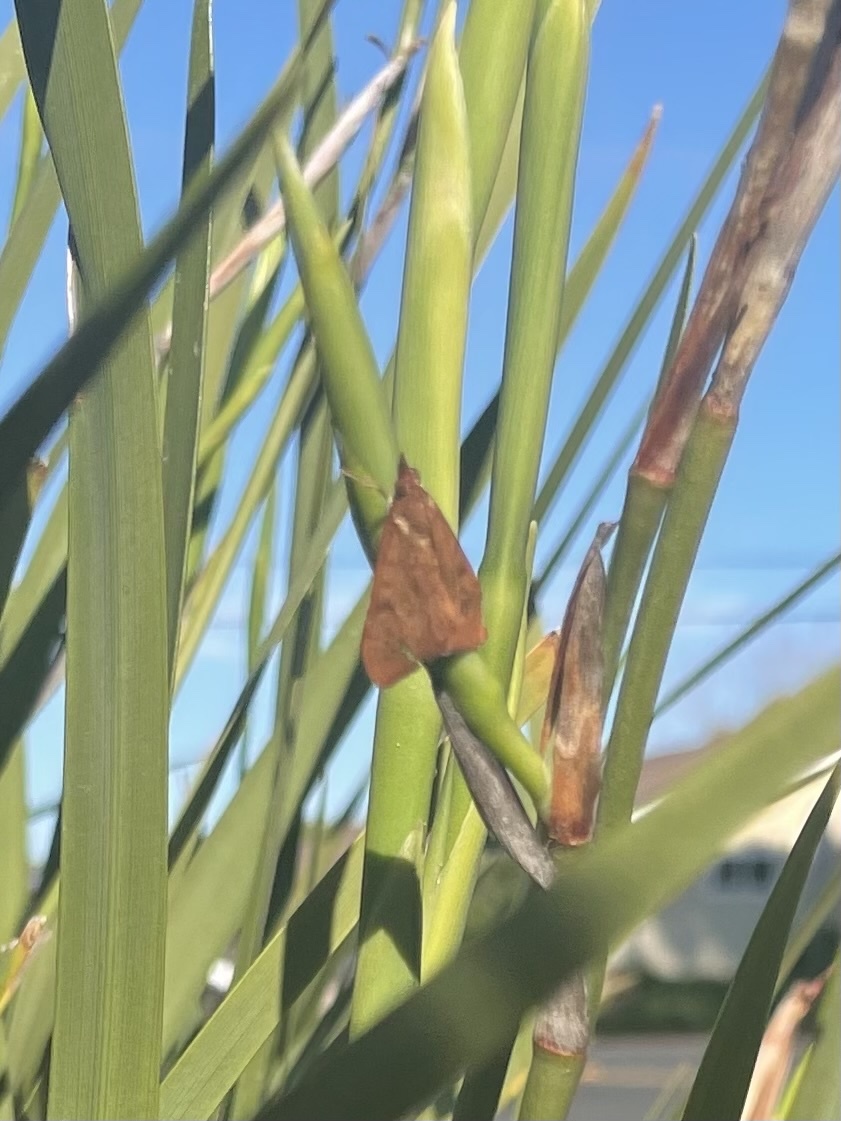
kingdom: Animalia
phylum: Arthropoda
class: Insecta
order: Lepidoptera
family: Crambidae
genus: Uresiphita
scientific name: Uresiphita reversalis
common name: Genista broom moth
